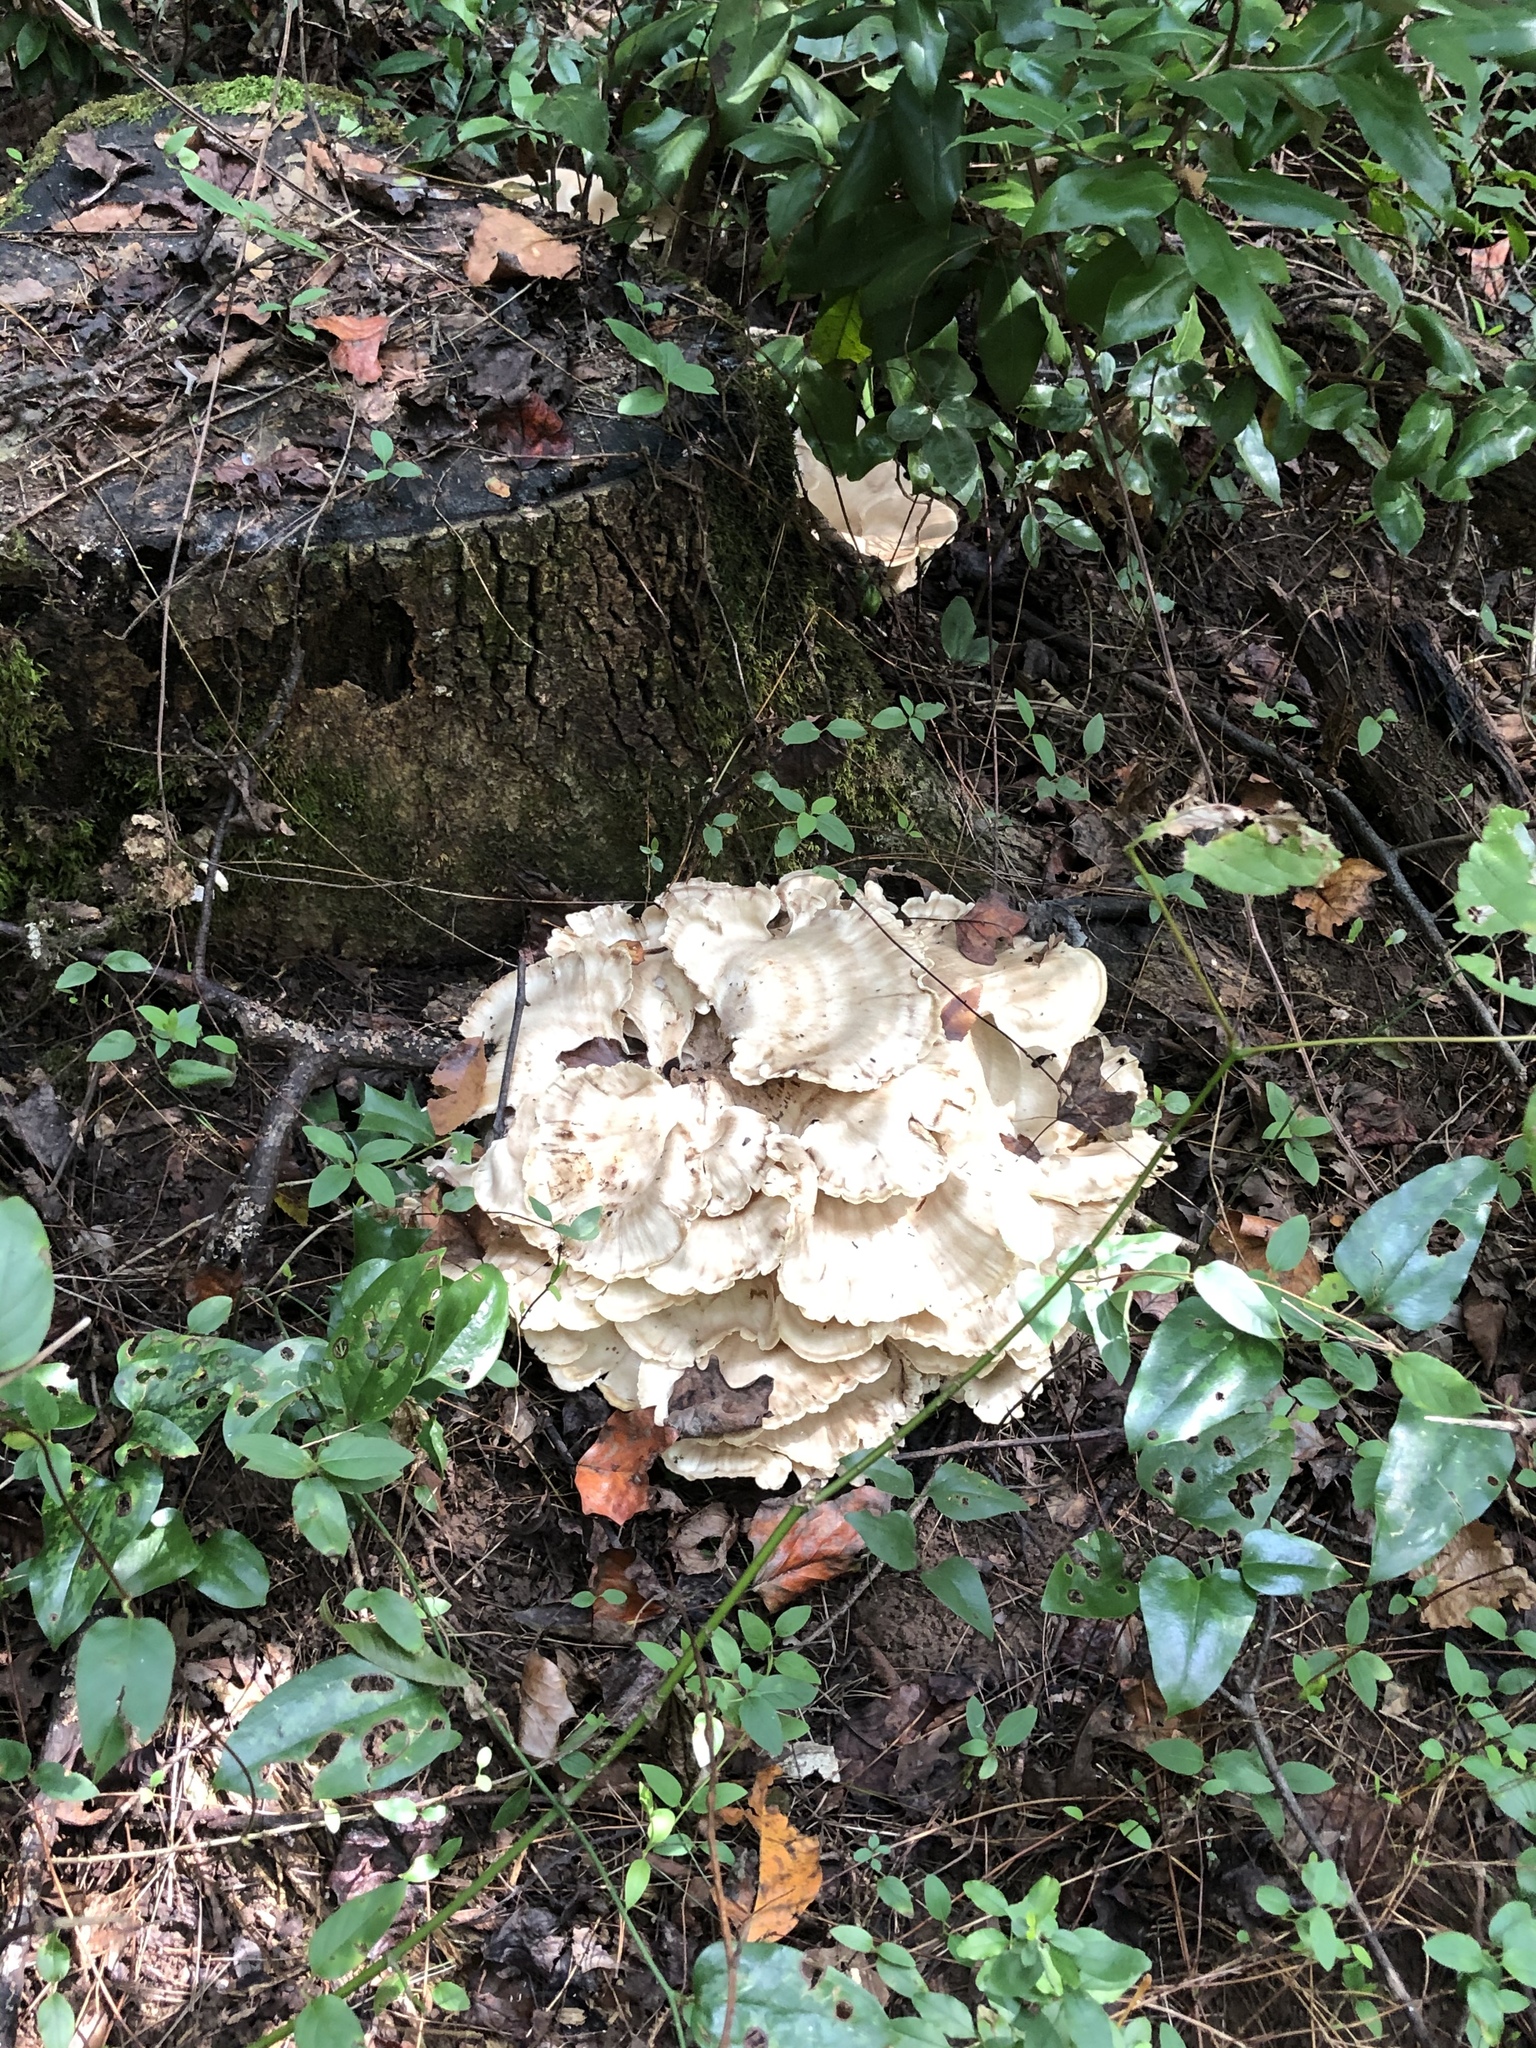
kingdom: Fungi
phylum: Basidiomycota
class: Agaricomycetes
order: Polyporales
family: Meripilaceae
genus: Meripilus
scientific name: Meripilus sumstinei
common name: Black-staining polypore
